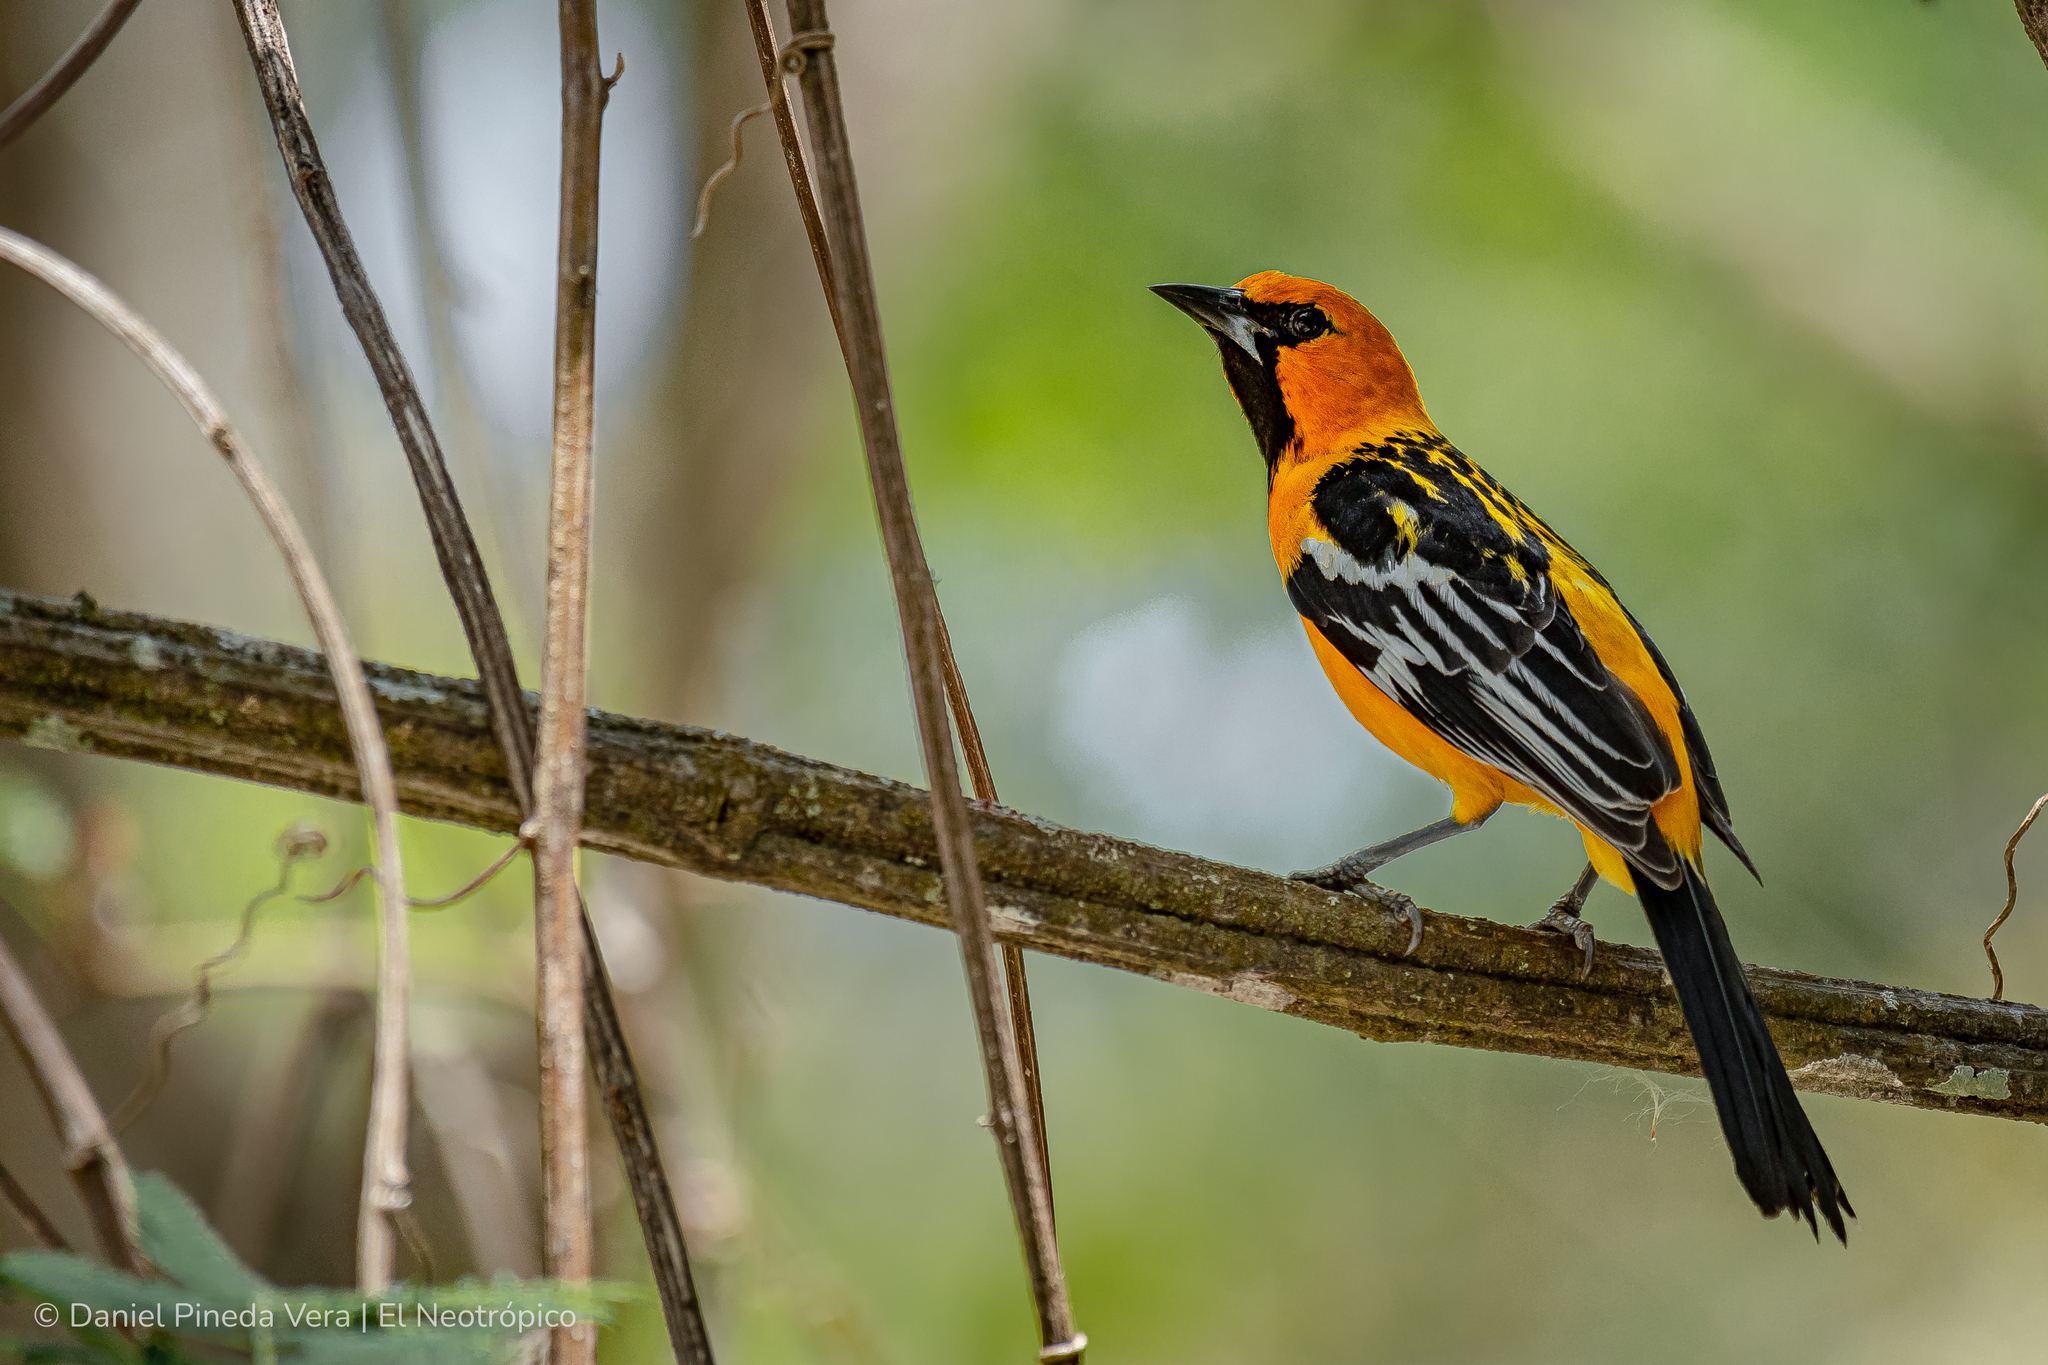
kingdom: Animalia
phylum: Chordata
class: Aves
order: Passeriformes
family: Icteridae
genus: Icterus
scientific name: Icterus pustulatus
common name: Streak-backed oriole
